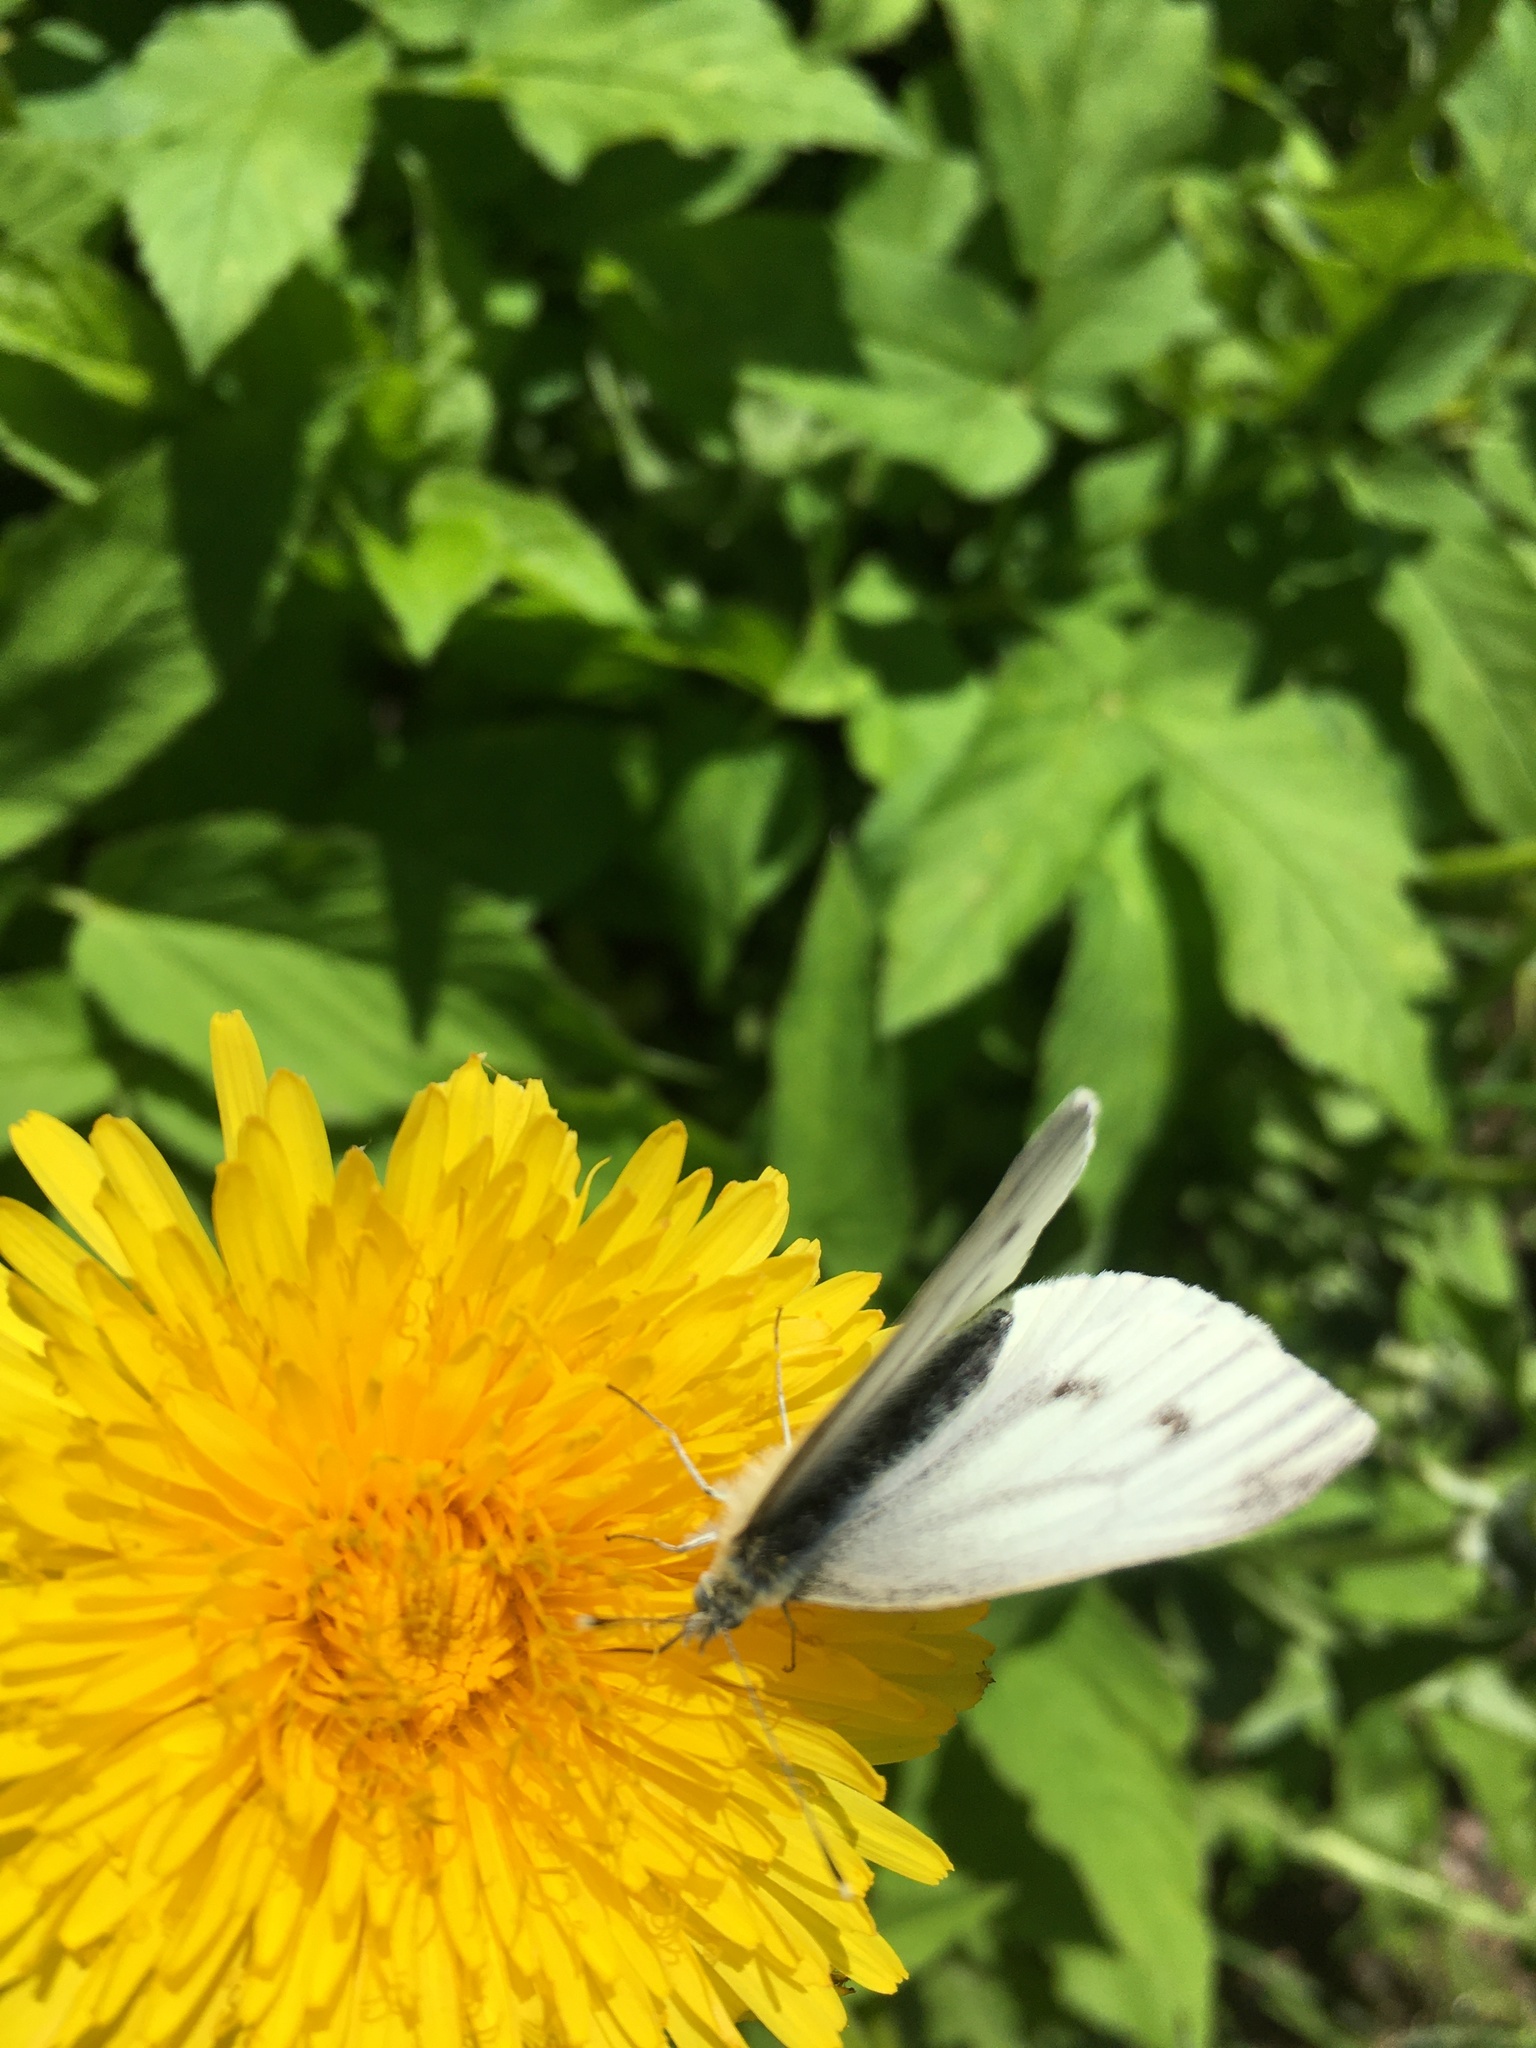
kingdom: Animalia
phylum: Arthropoda
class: Insecta
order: Lepidoptera
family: Pieridae
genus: Pieris
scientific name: Pieris napi
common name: Green-veined white
